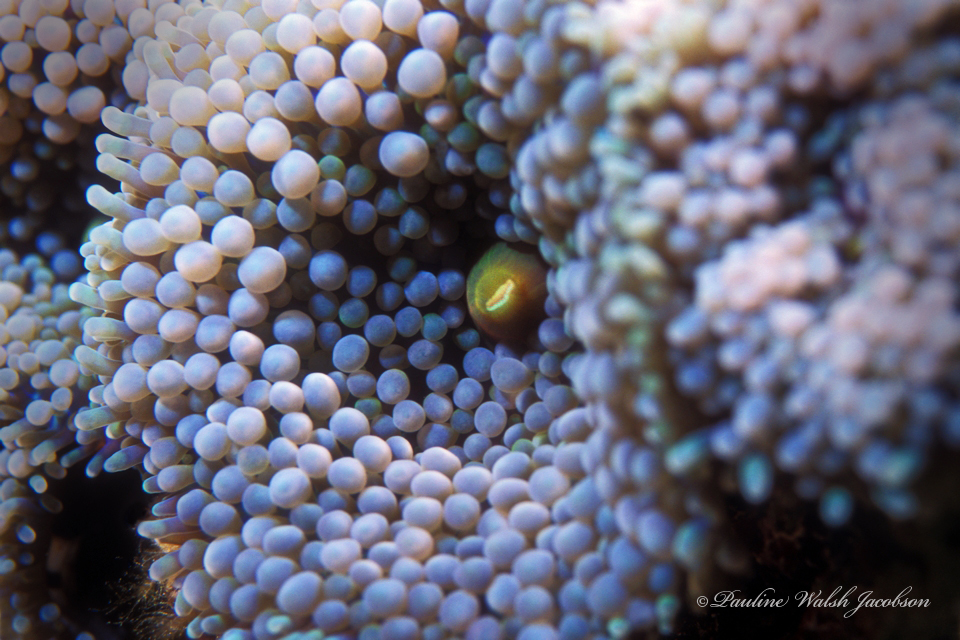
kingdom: Animalia
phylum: Cnidaria
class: Anthozoa
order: Corallimorpharia
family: Ricordeidae
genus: Ricordea
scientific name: Ricordea florida
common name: False coral
